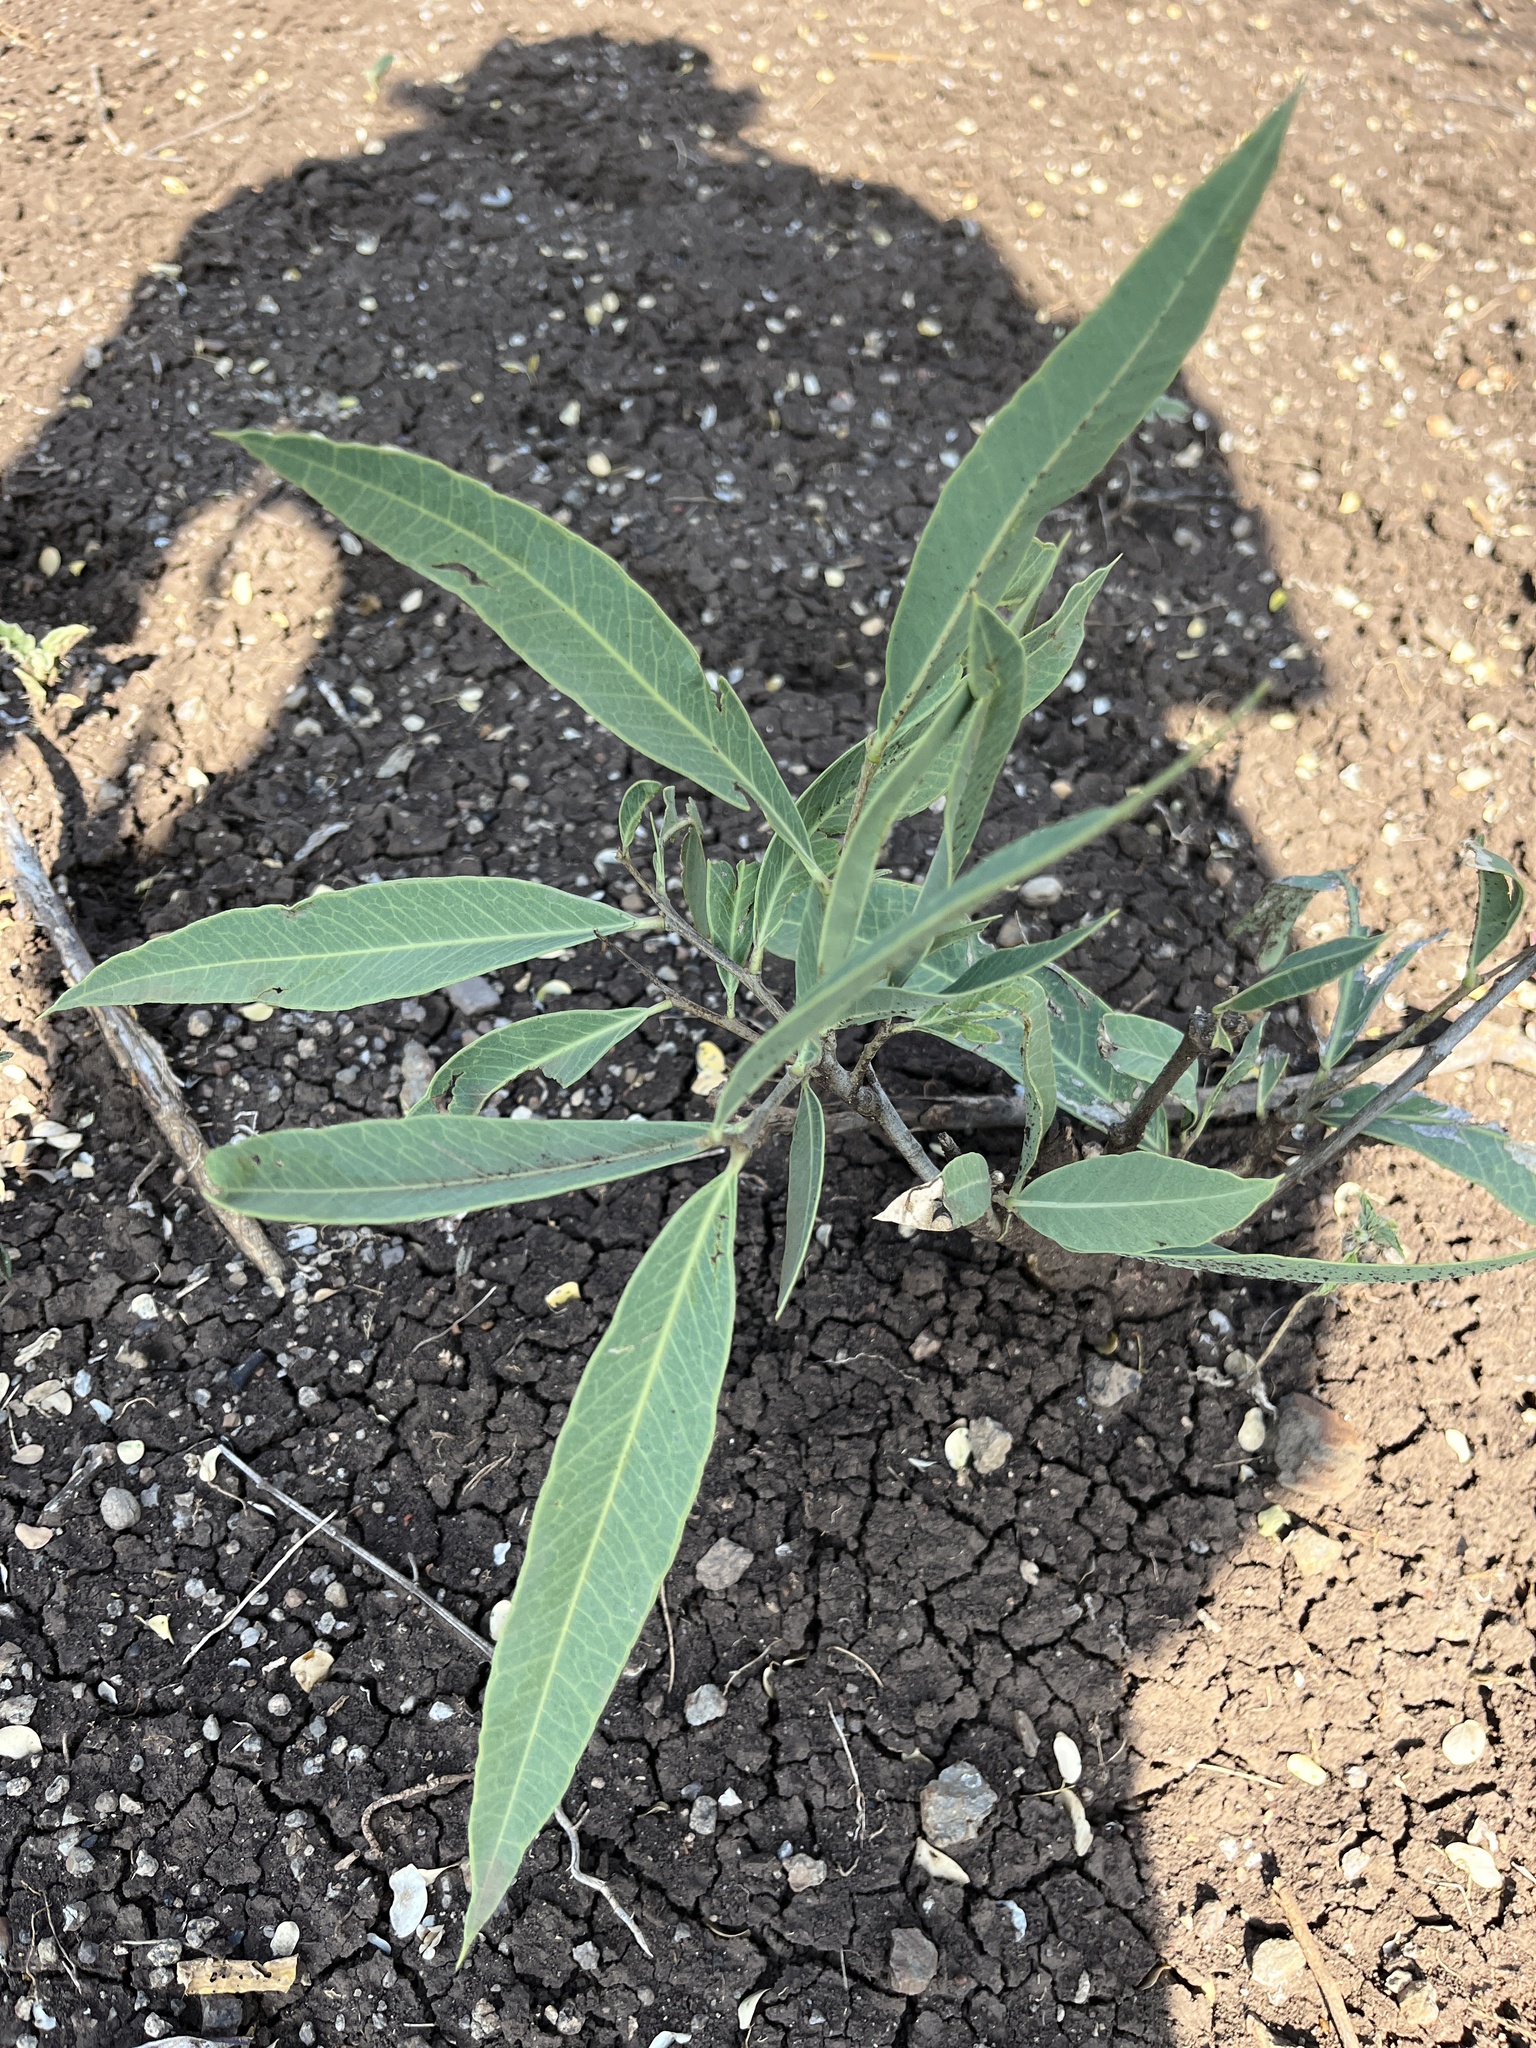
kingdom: Plantae
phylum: Tracheophyta
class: Magnoliopsida
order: Gentianales
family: Apocynaceae
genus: Nerium
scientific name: Nerium oleander
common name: Oleander
